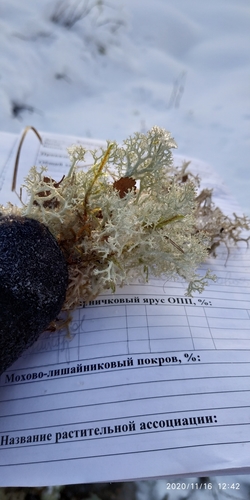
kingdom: Fungi
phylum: Ascomycota
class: Lecanoromycetes
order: Lecanorales
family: Cladoniaceae
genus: Cladonia
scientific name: Cladonia portentosa
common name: Reindeer lichen
